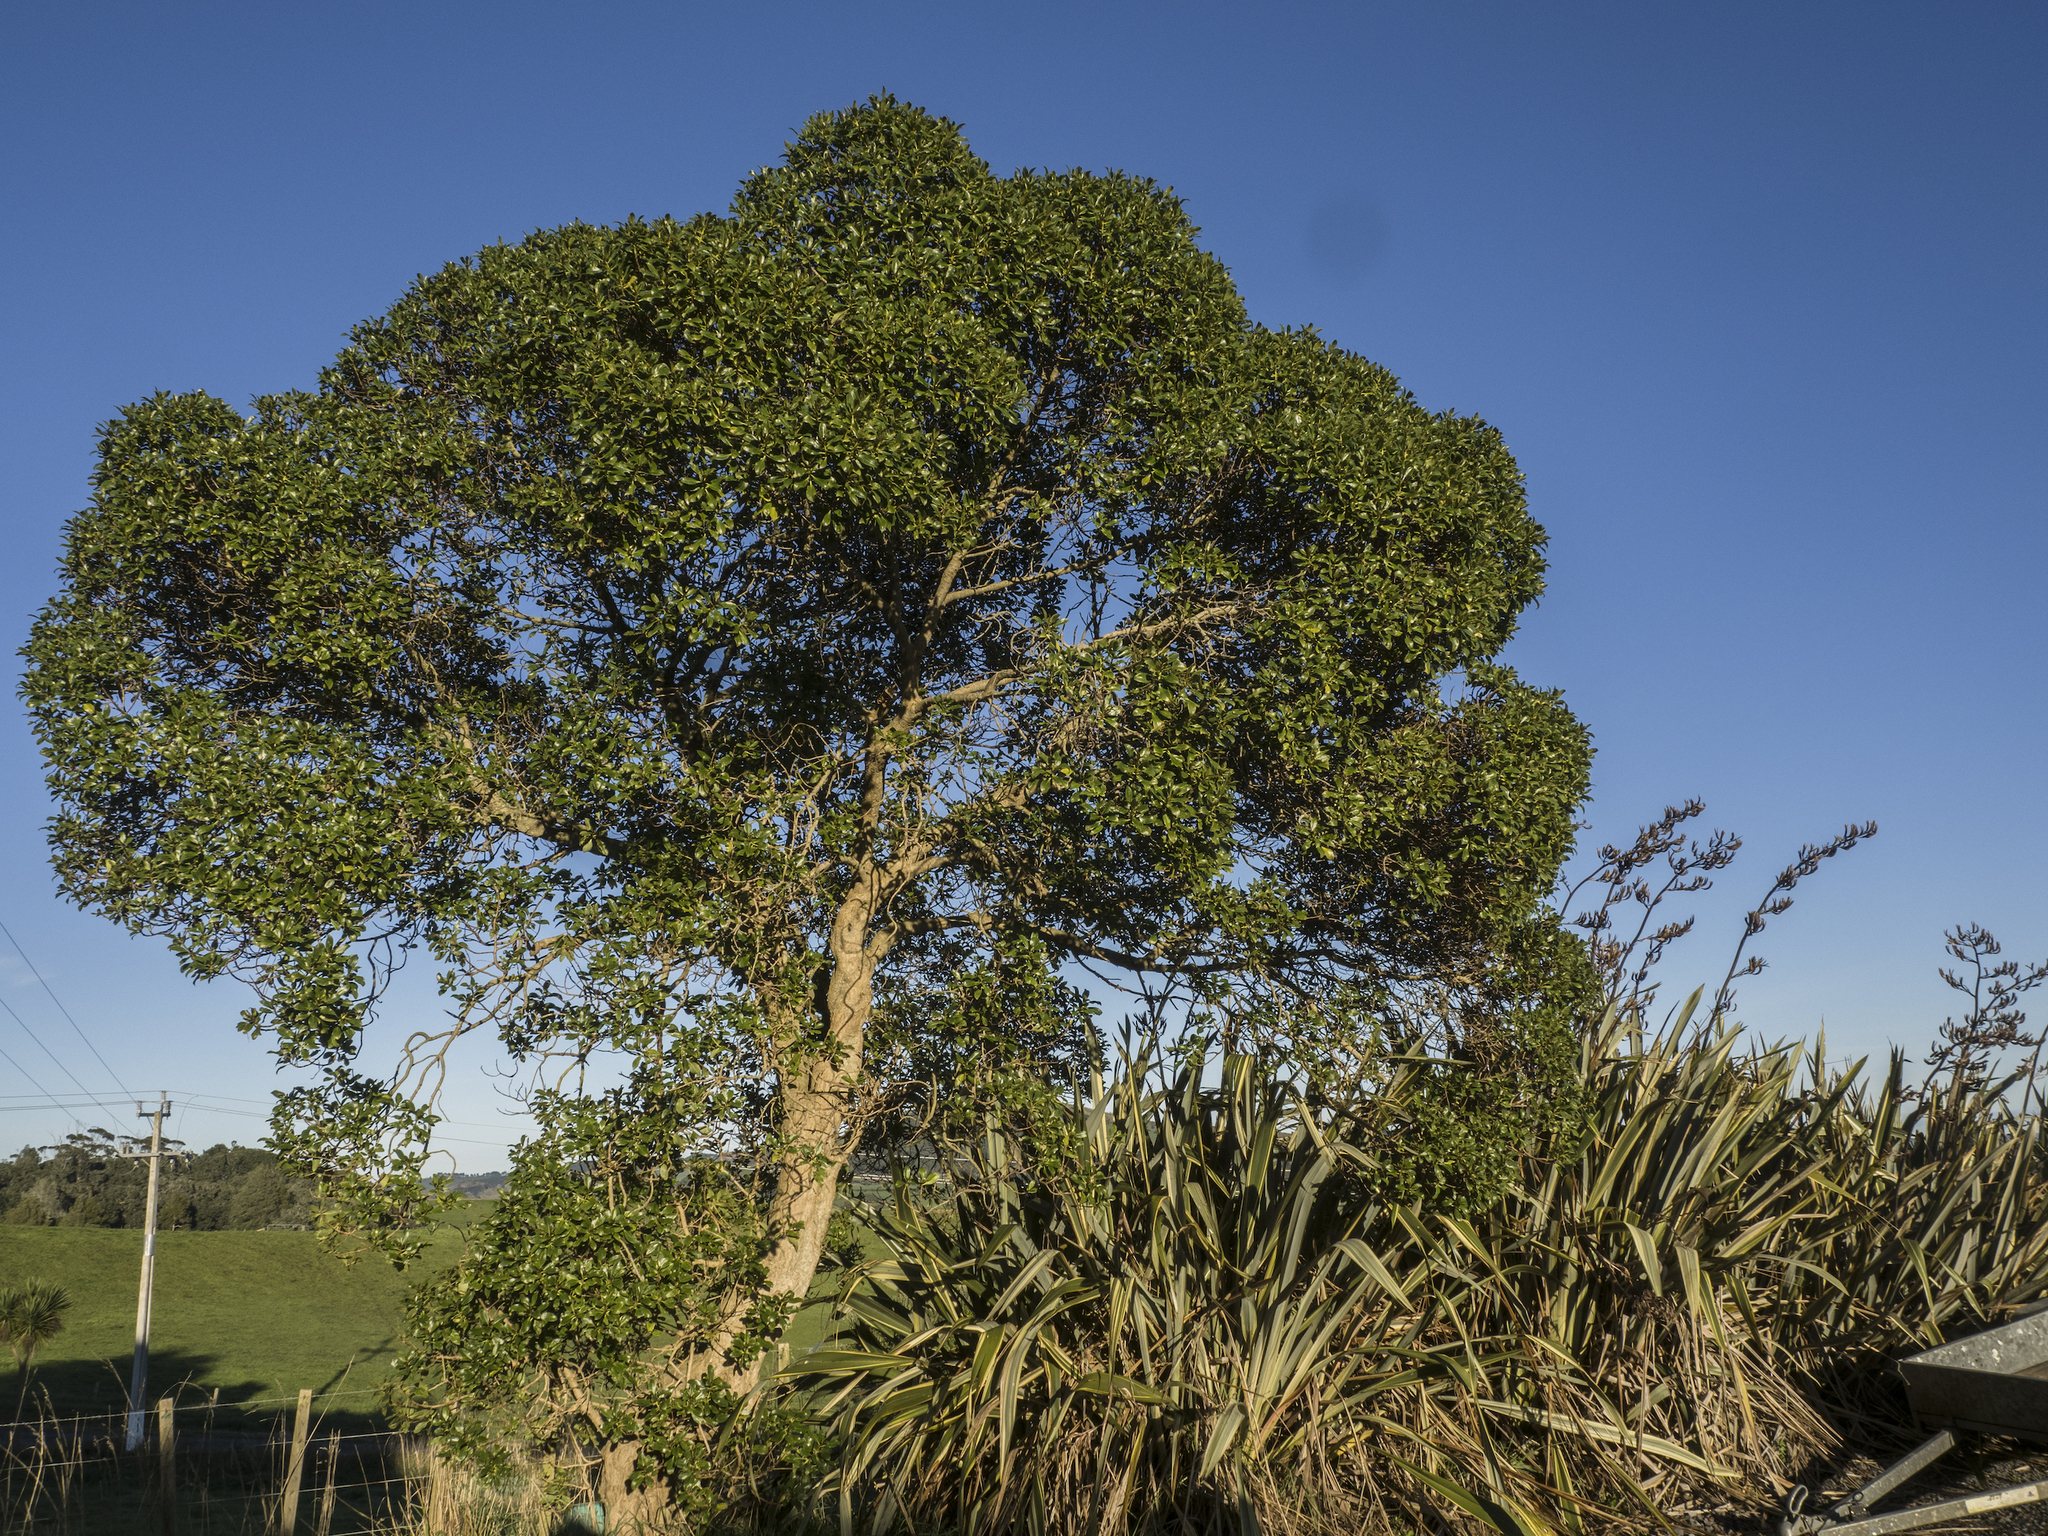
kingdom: Plantae
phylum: Tracheophyta
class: Magnoliopsida
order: Lamiales
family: Scrophulariaceae
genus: Myoporum
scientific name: Myoporum laetum
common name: Ngaio tree
